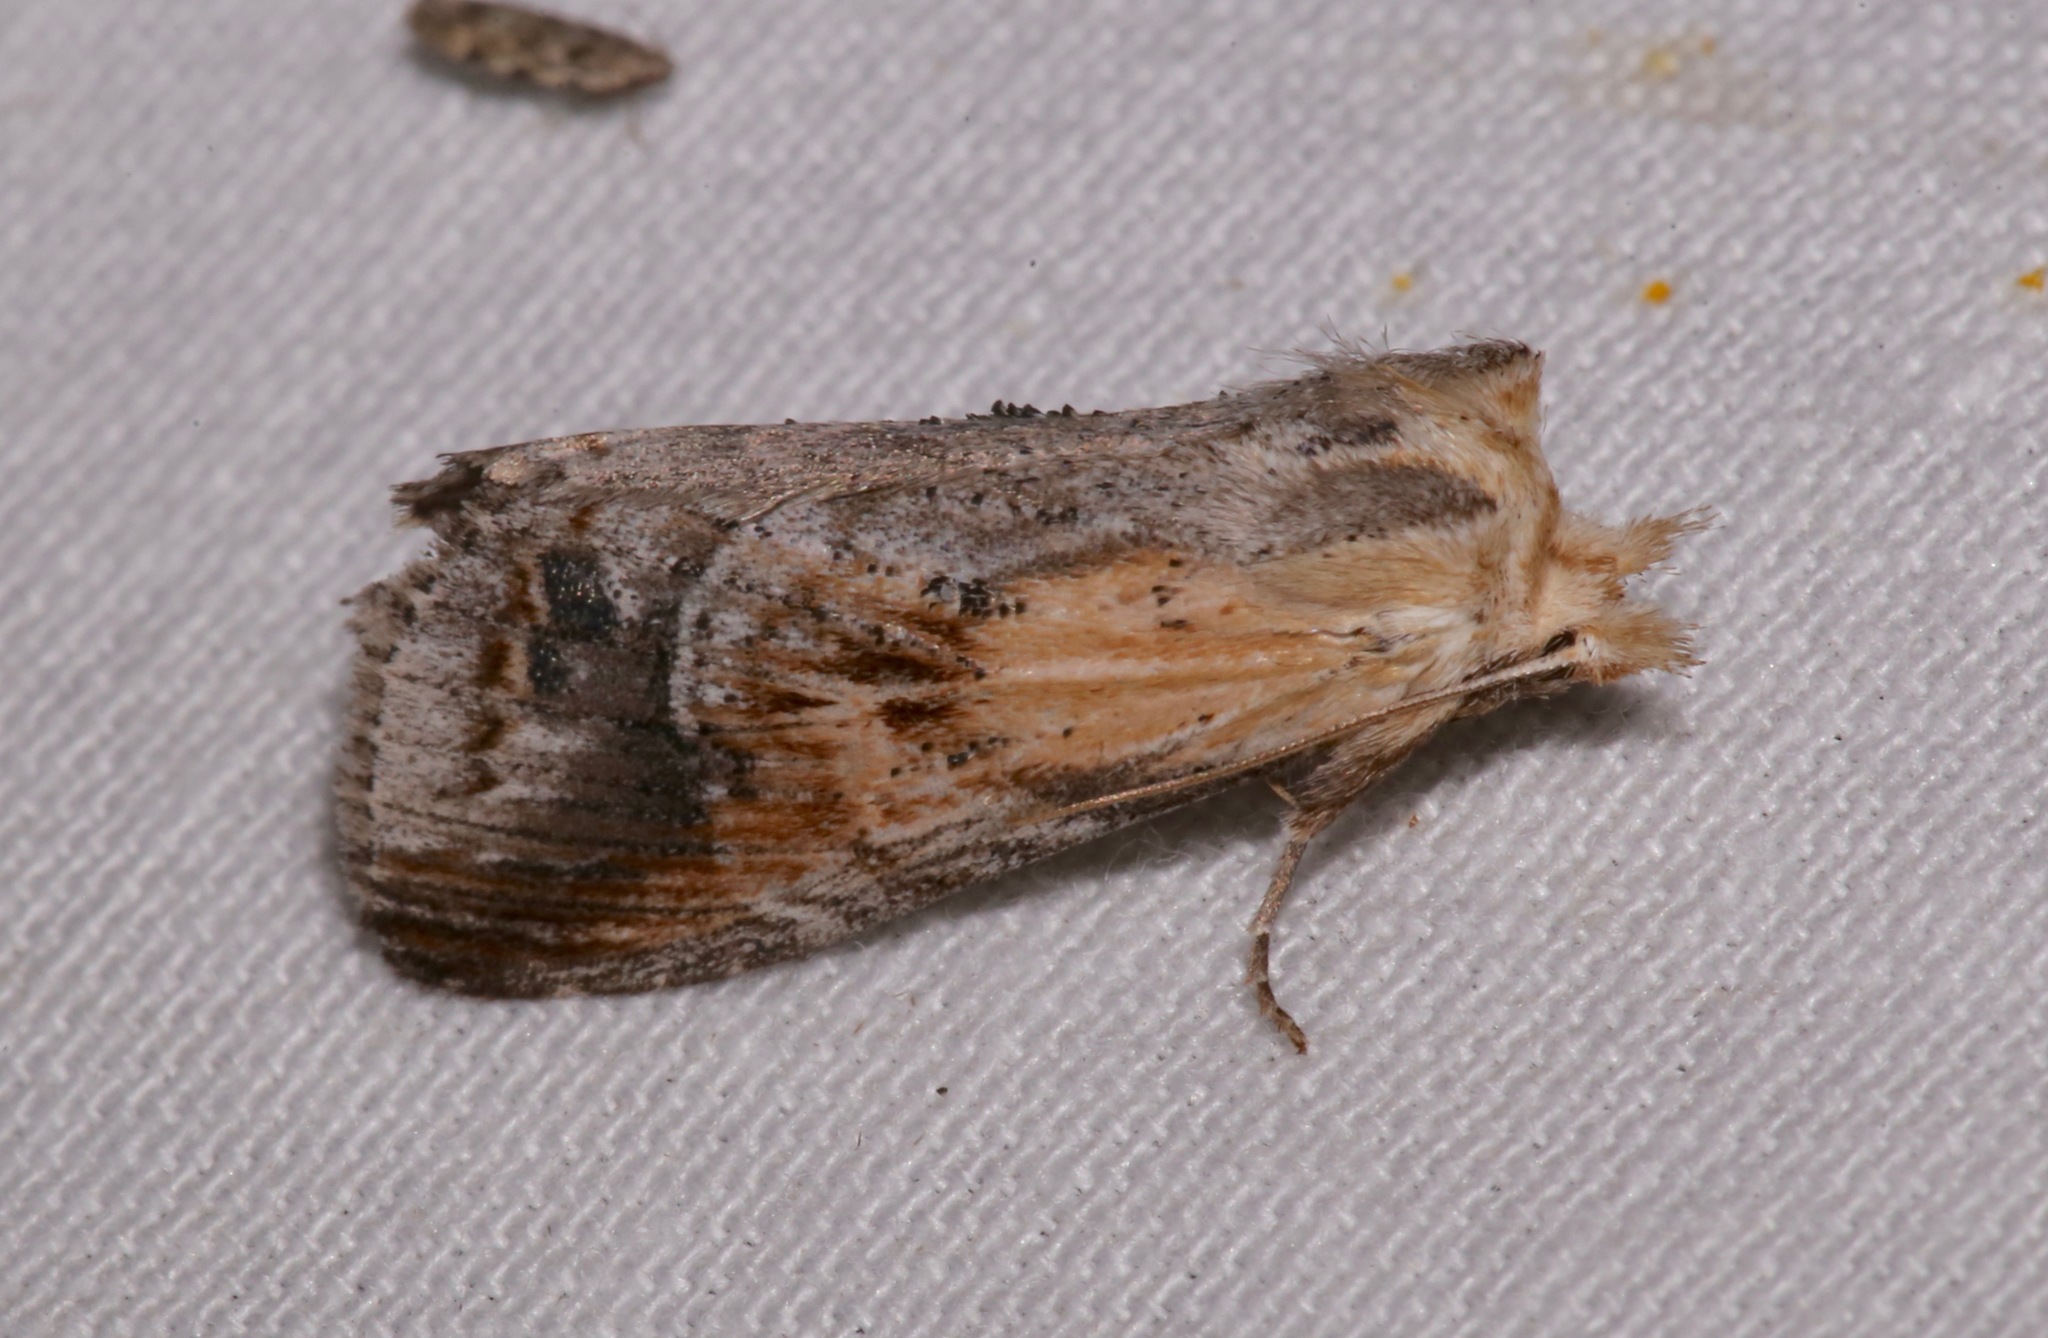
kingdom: Animalia
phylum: Arthropoda
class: Insecta
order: Lepidoptera
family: Notodontidae
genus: Dasylophia
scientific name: Dasylophia anguina
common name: Black-spotted prominent
